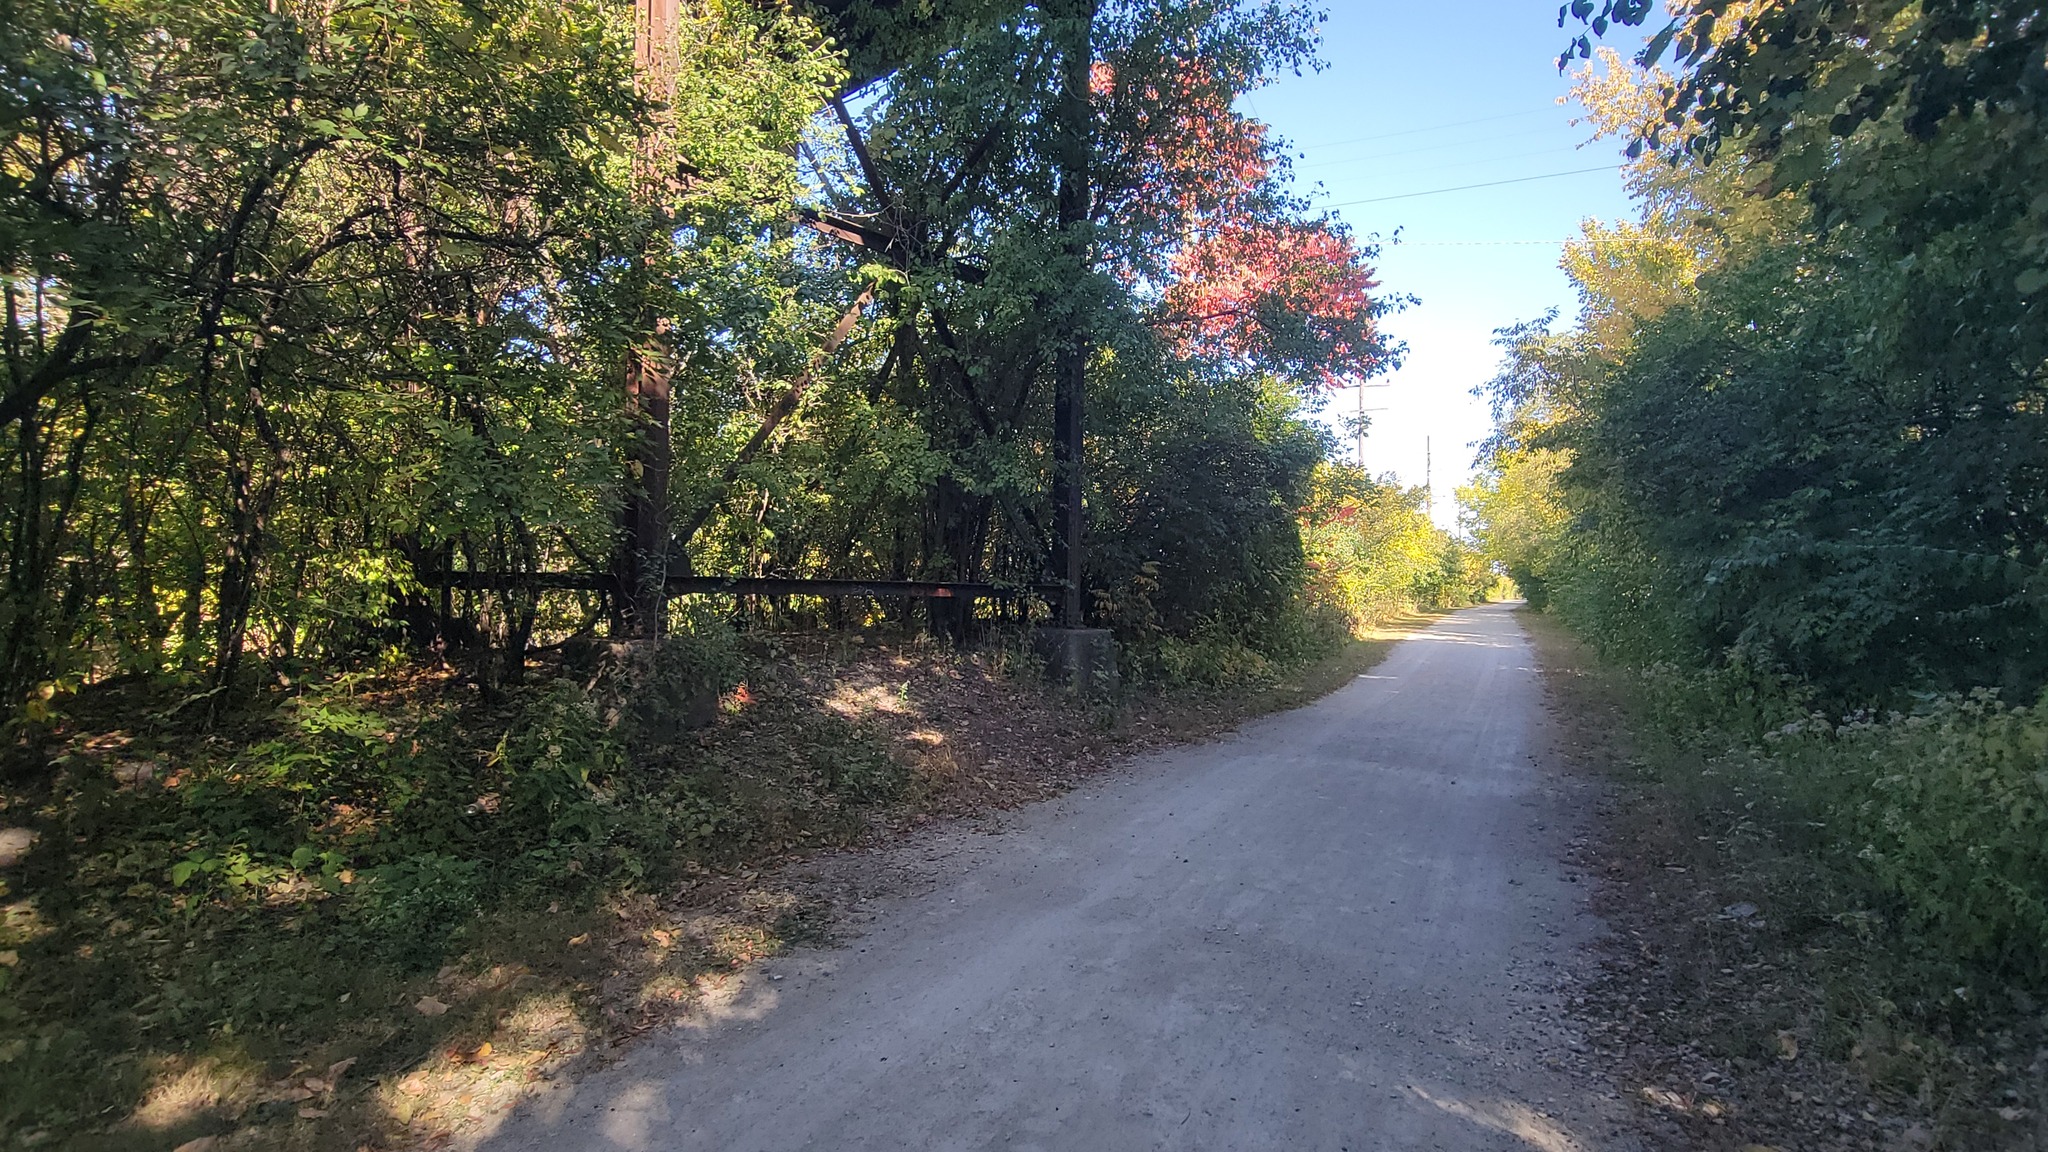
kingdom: Animalia
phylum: Chordata
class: Aves
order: Passeriformes
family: Turdidae
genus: Turdus
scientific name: Turdus migratorius
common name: American robin
